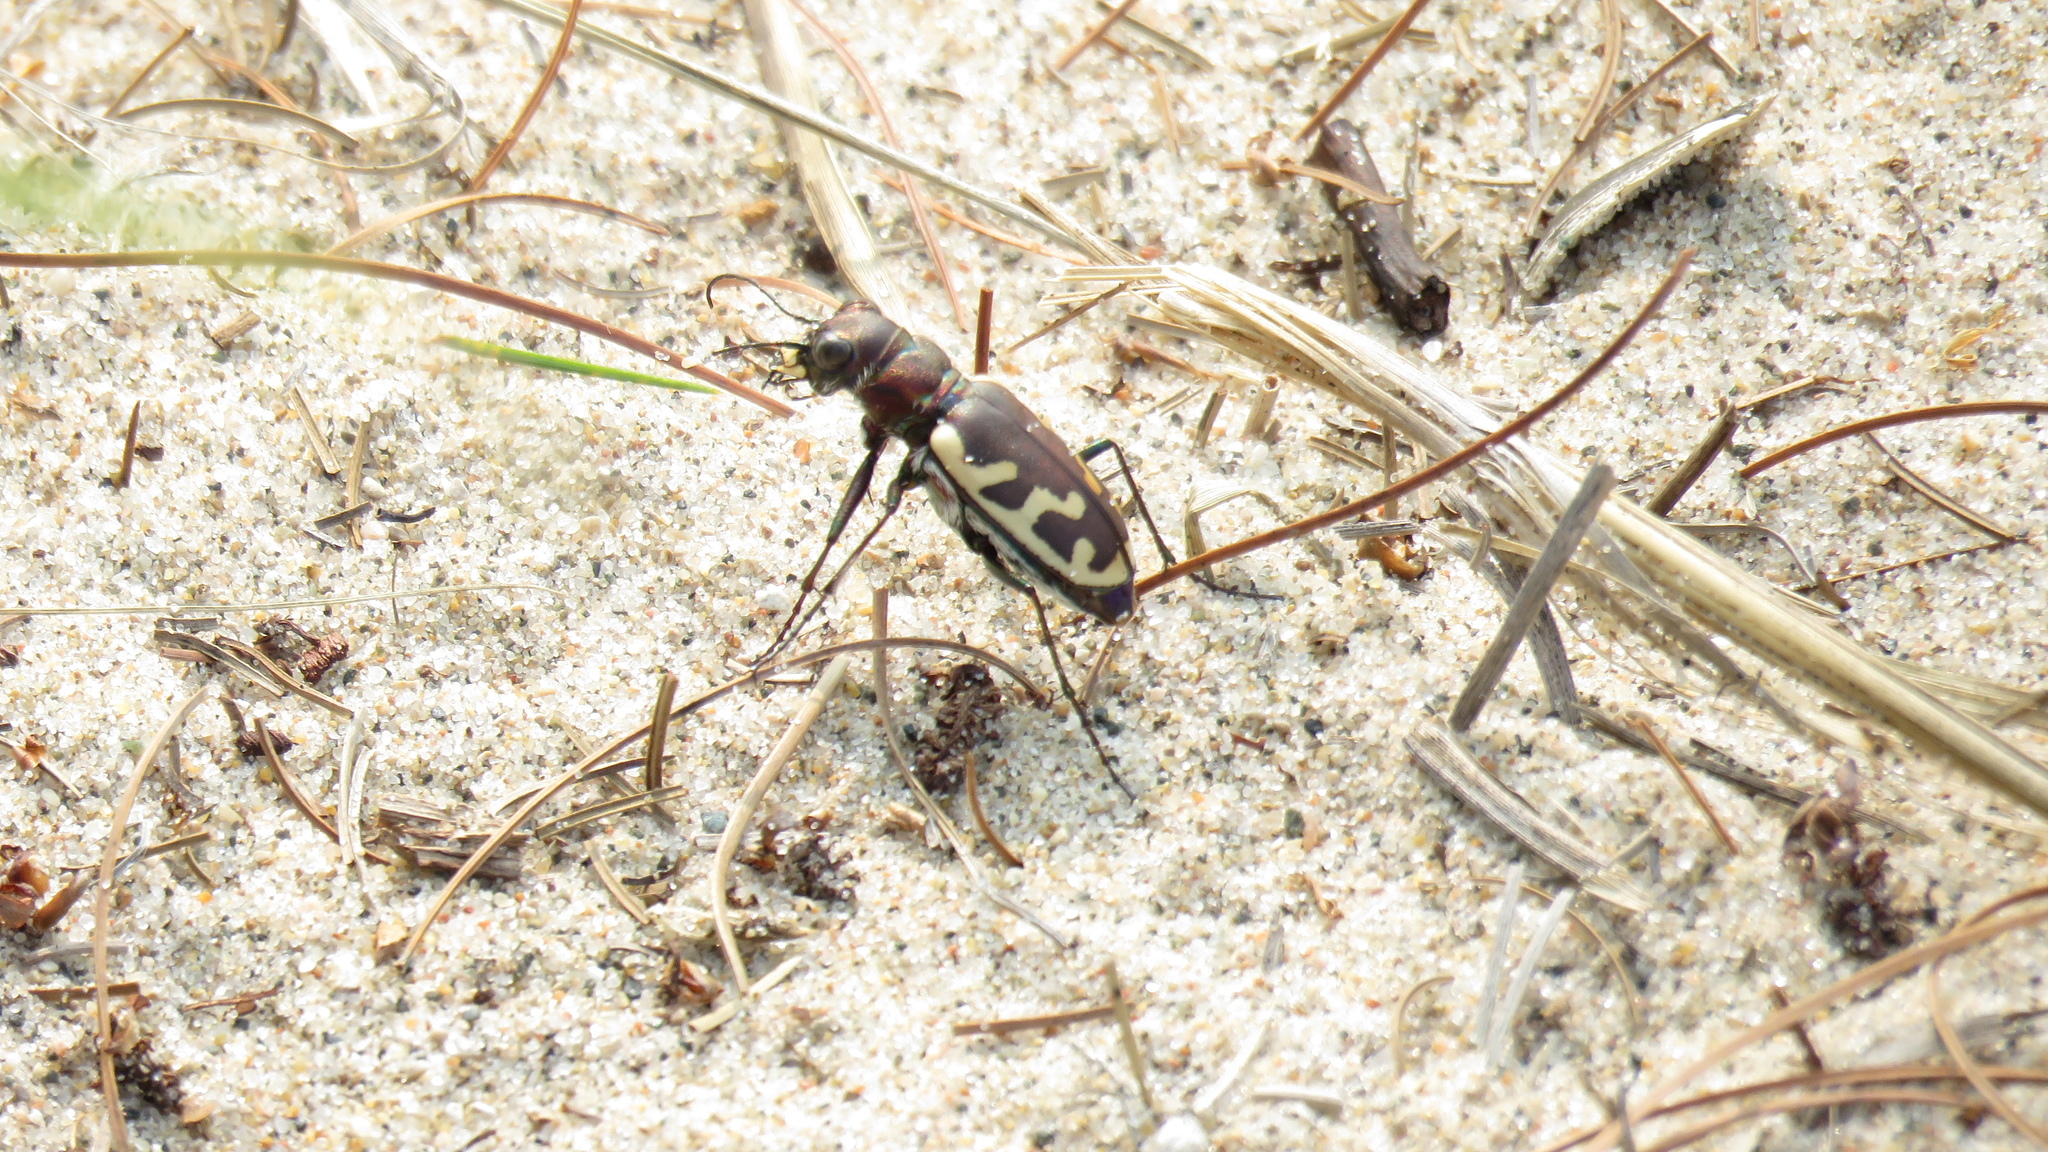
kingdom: Animalia
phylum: Arthropoda
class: Insecta
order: Coleoptera
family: Carabidae
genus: Cicindela
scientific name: Cicindela formosa
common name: Big sand tiger beetle
